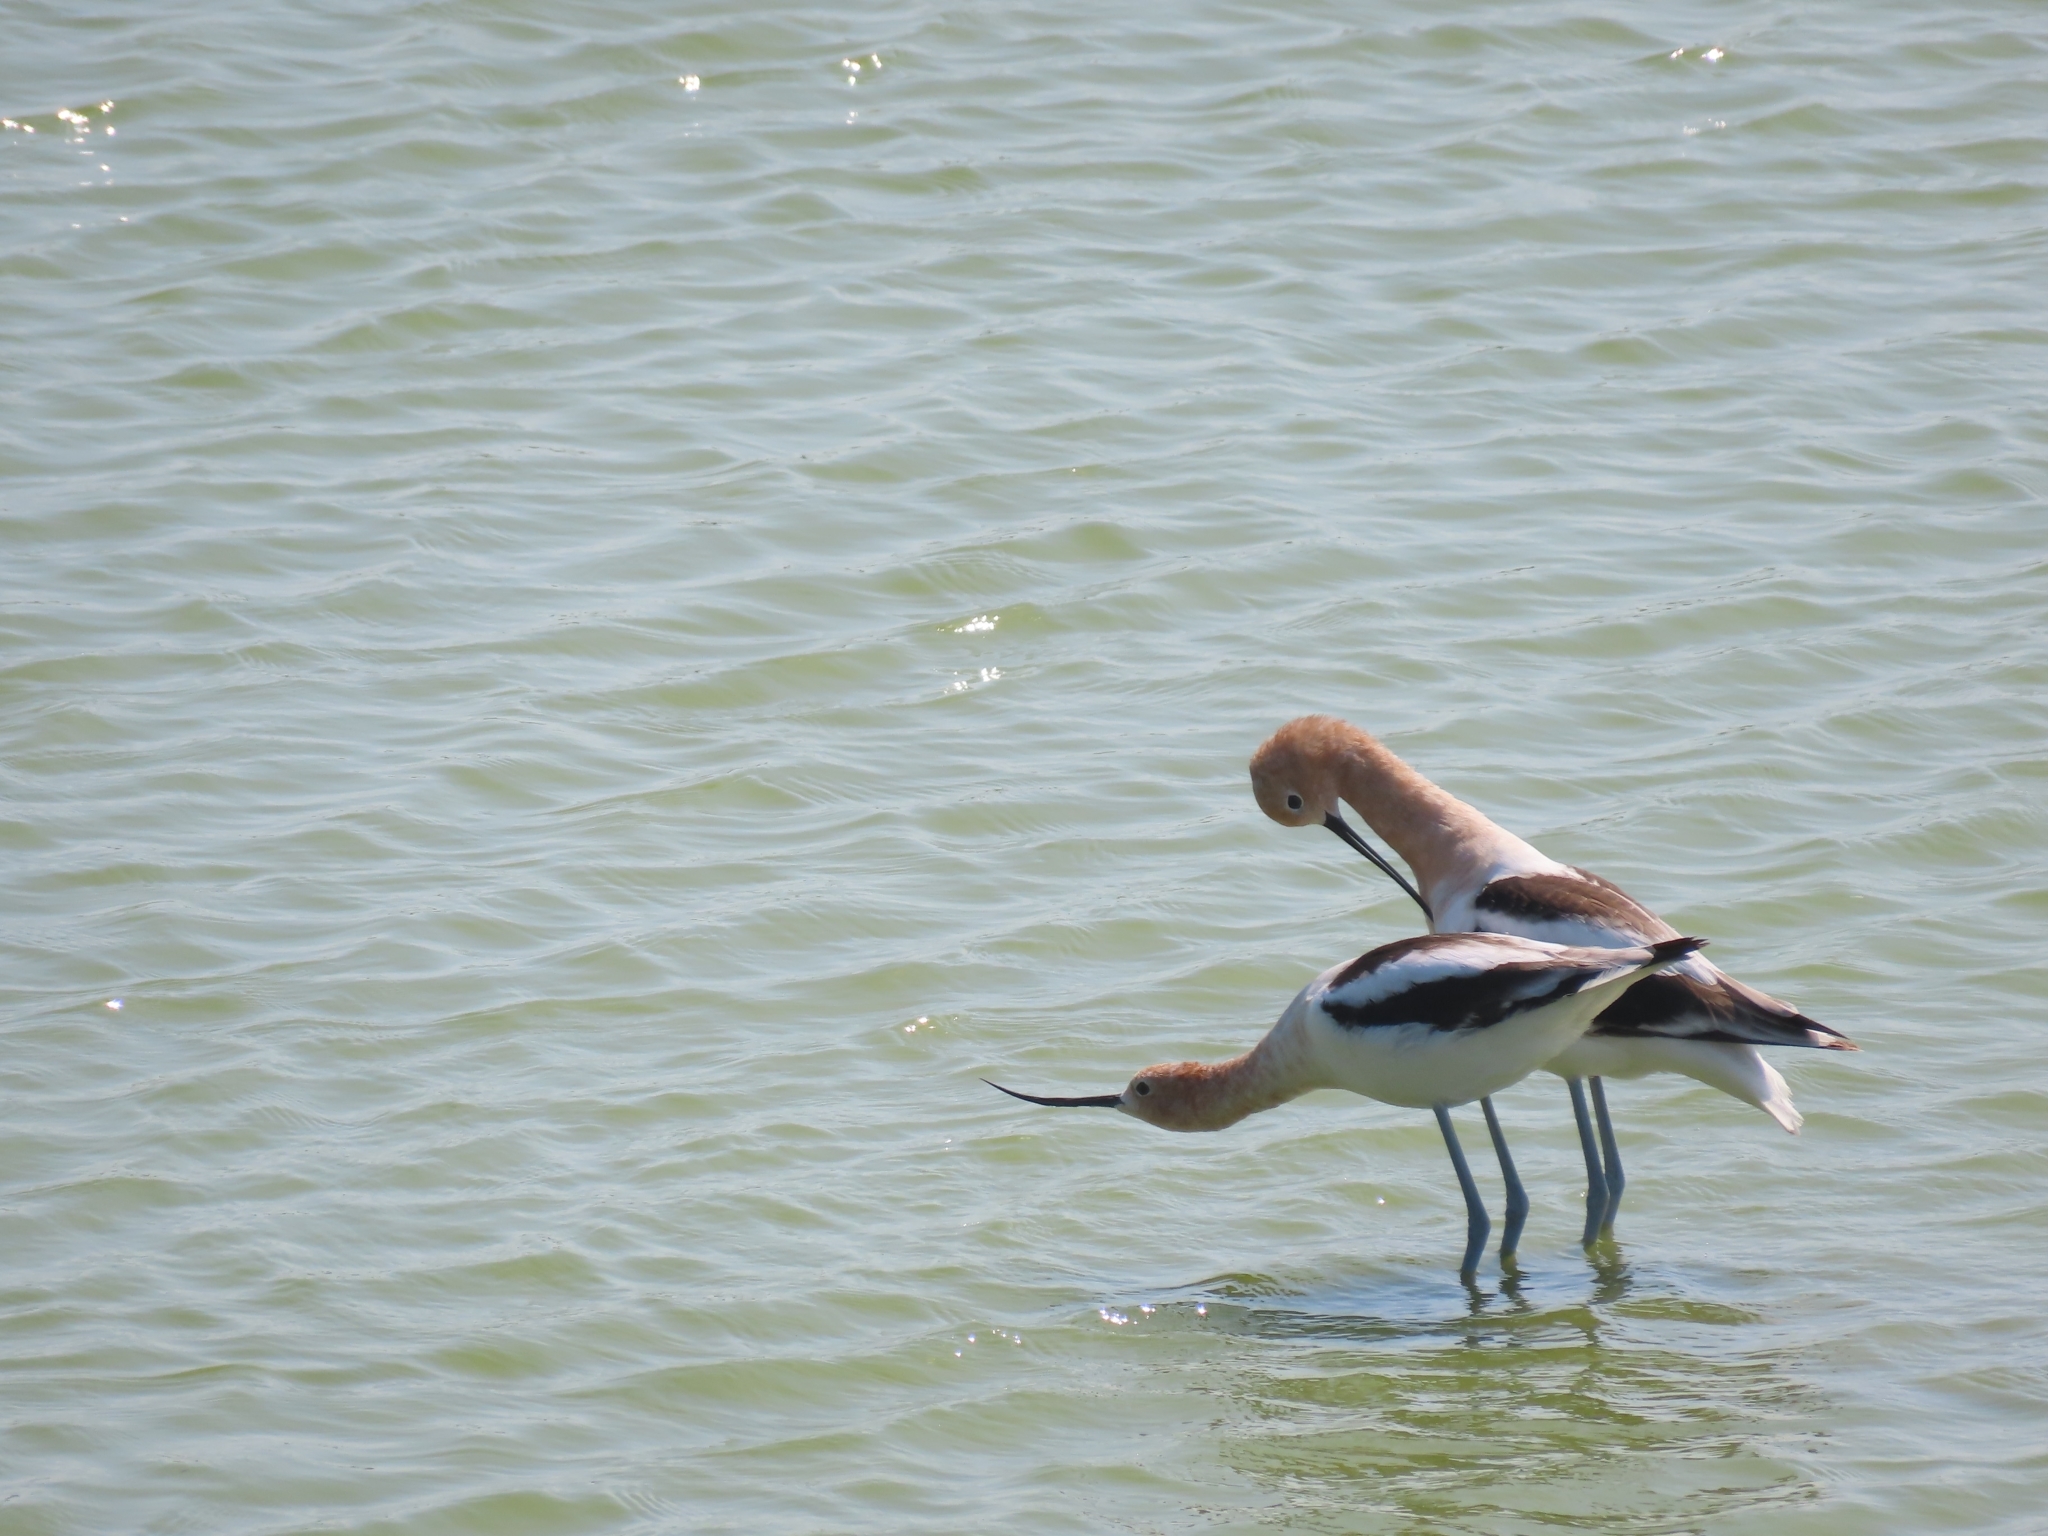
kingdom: Animalia
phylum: Chordata
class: Aves
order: Charadriiformes
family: Recurvirostridae
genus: Recurvirostra
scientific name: Recurvirostra americana
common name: American avocet
